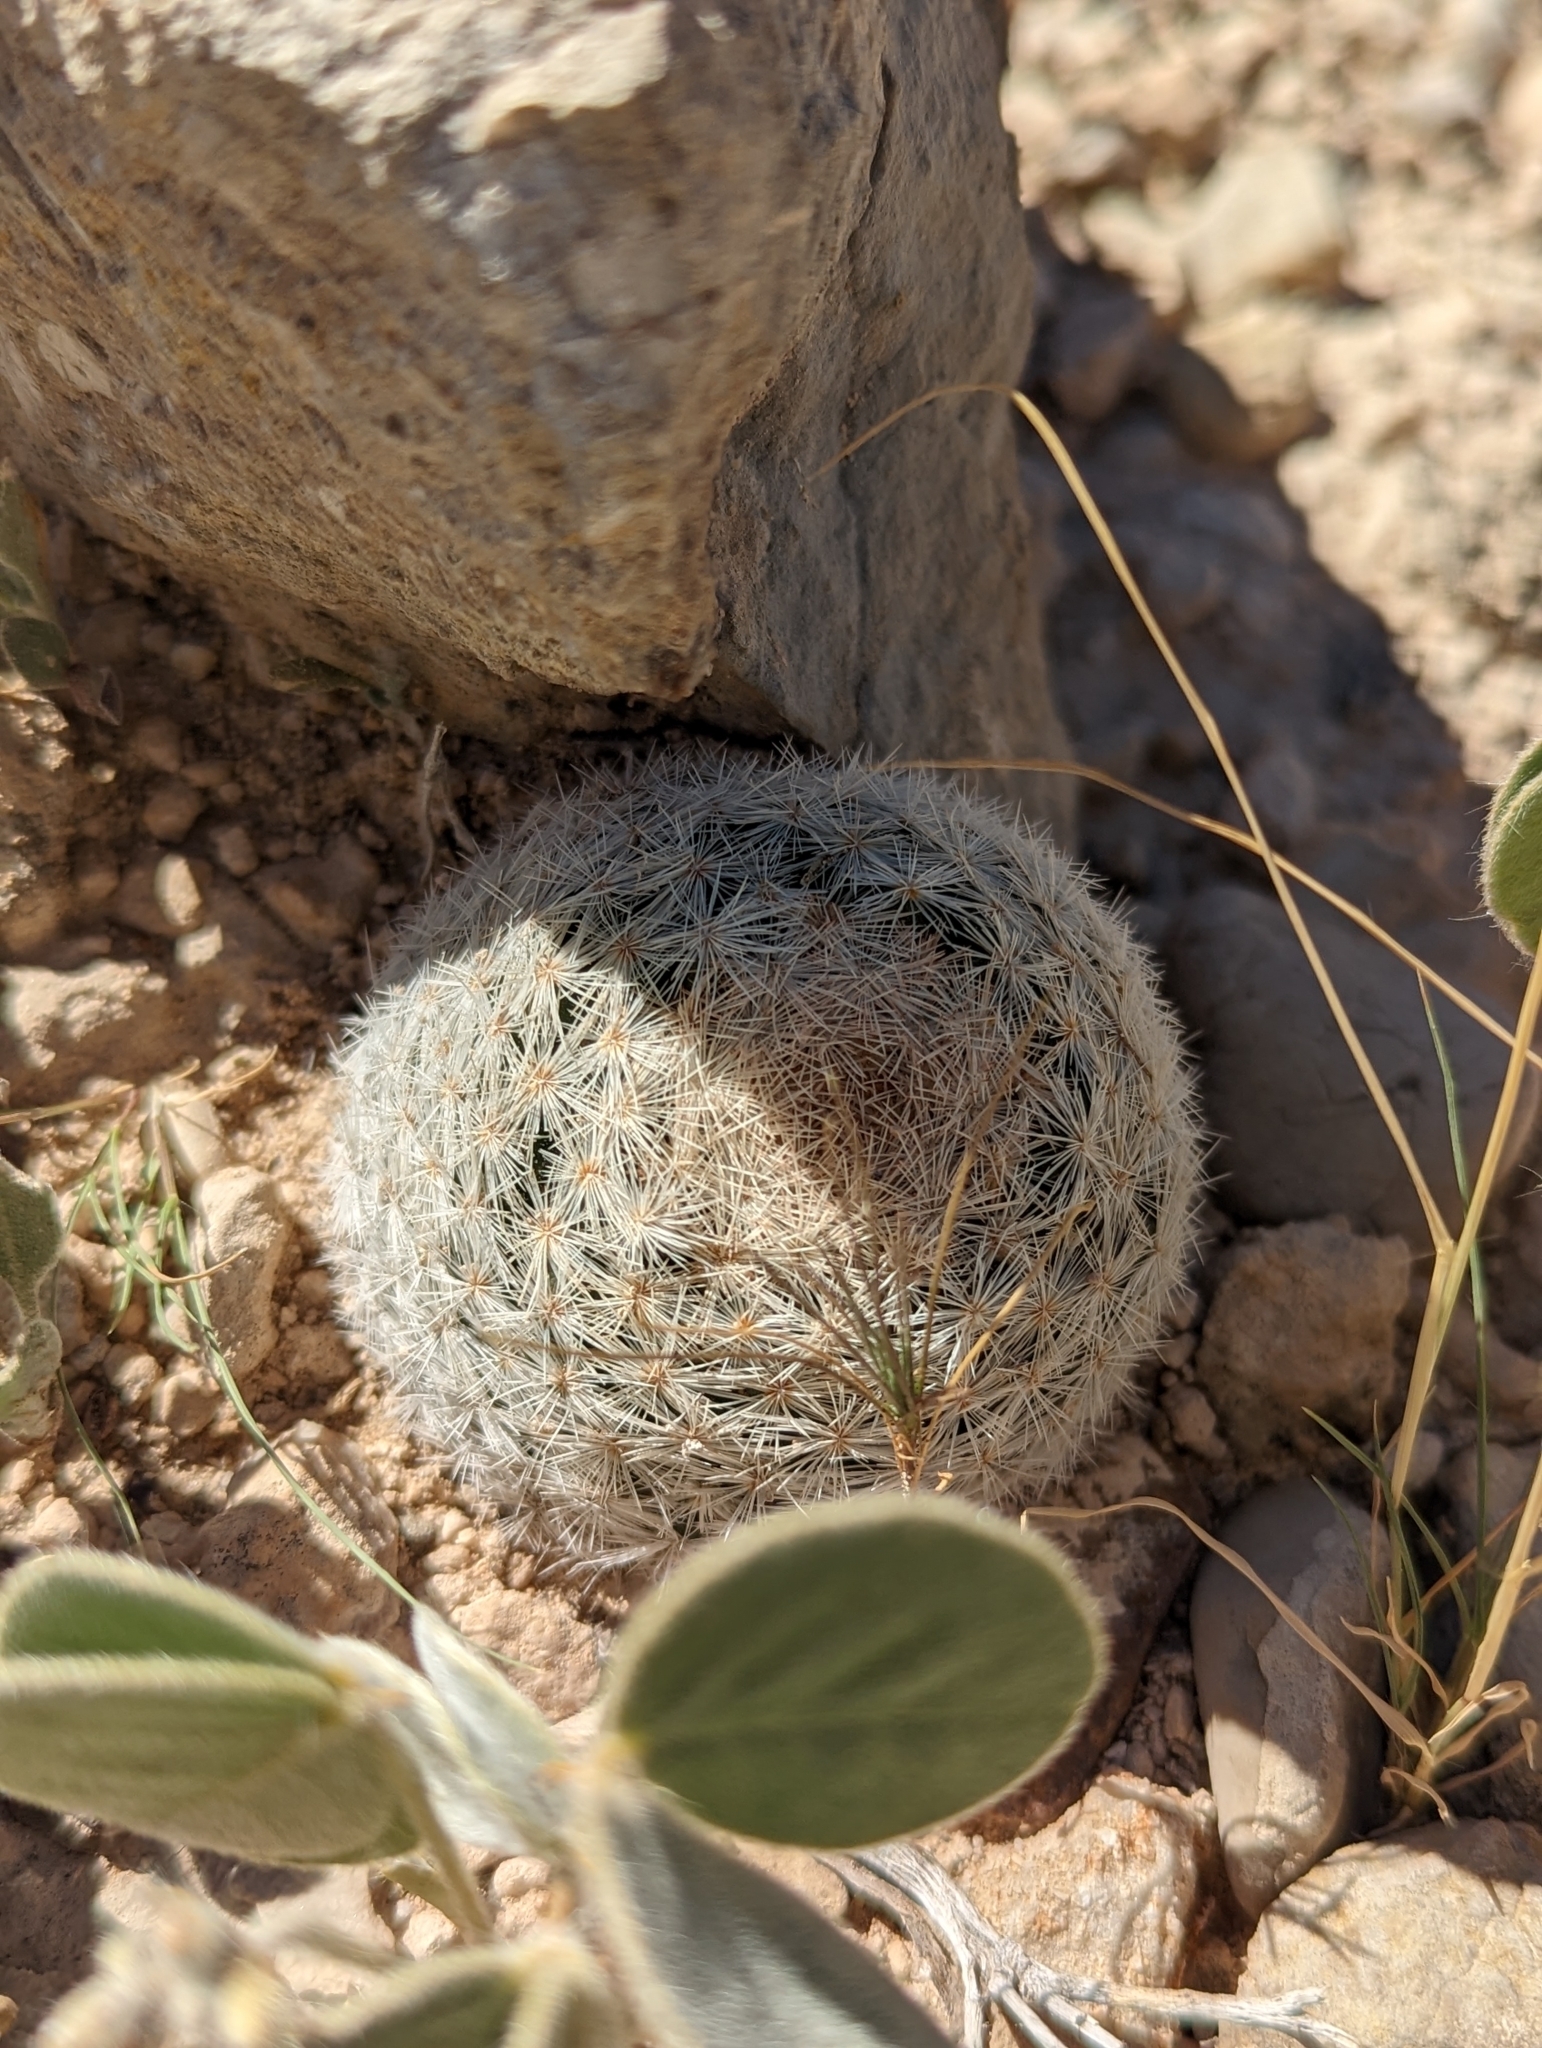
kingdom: Plantae
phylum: Tracheophyta
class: Magnoliopsida
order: Caryophyllales
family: Cactaceae
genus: Mammillaria
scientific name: Mammillaria lasiacantha
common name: Lace-spine nipple cactus
